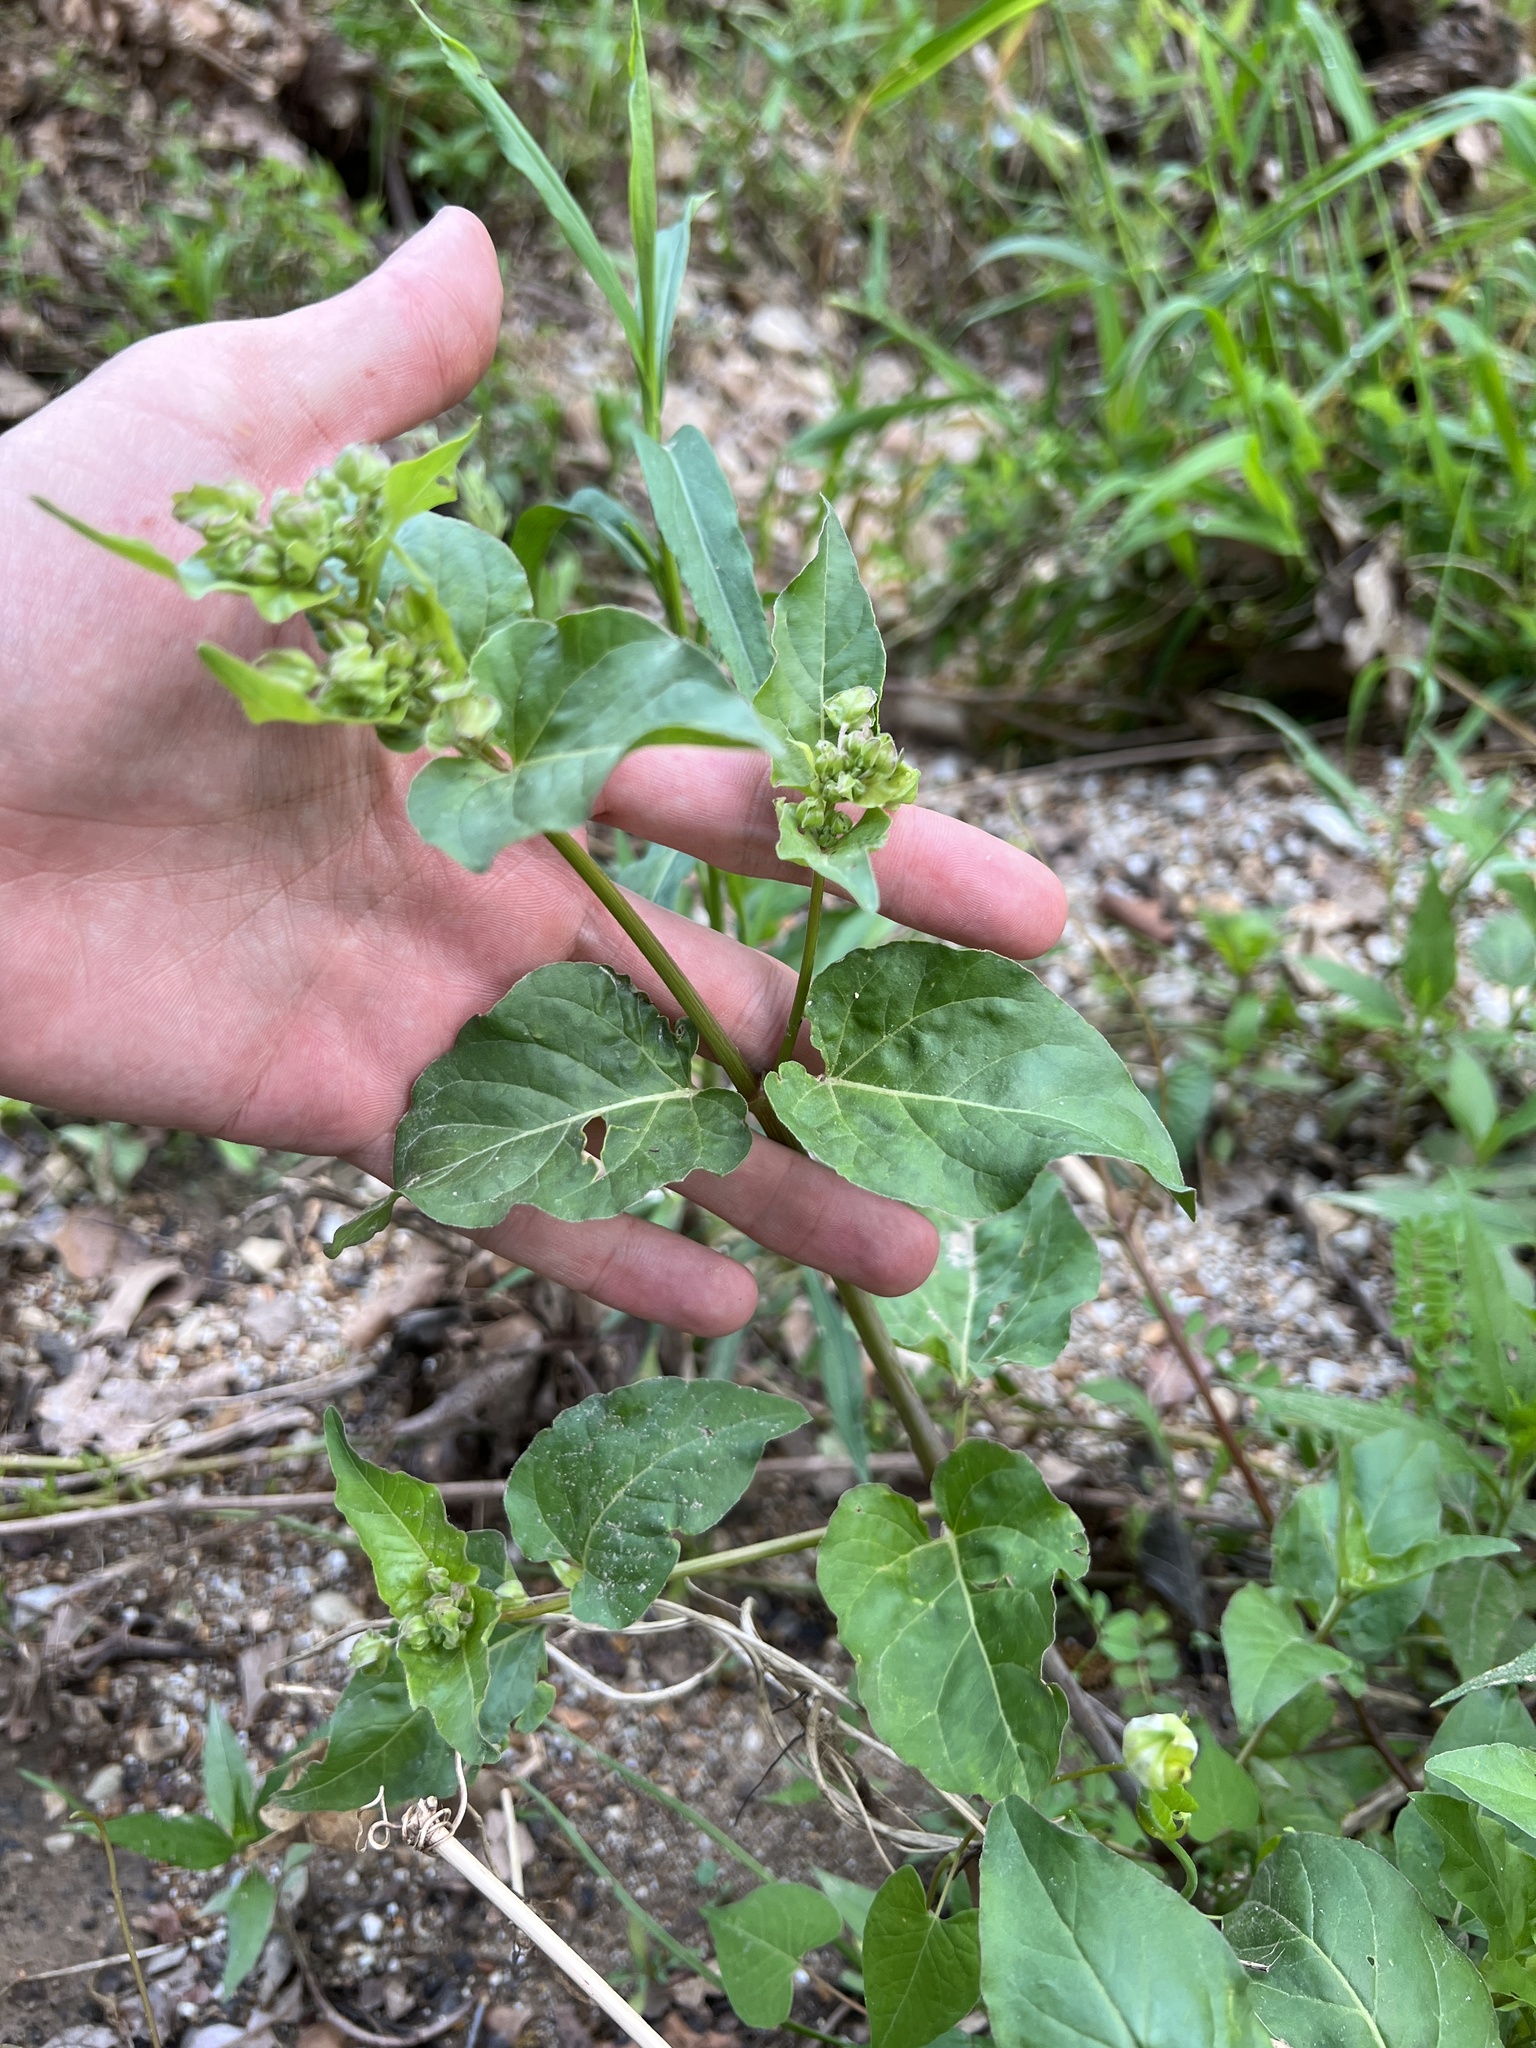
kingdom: Plantae
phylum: Tracheophyta
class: Magnoliopsida
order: Caryophyllales
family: Nyctaginaceae
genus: Mirabilis
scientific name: Mirabilis nyctaginea
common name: Umbrella wort
